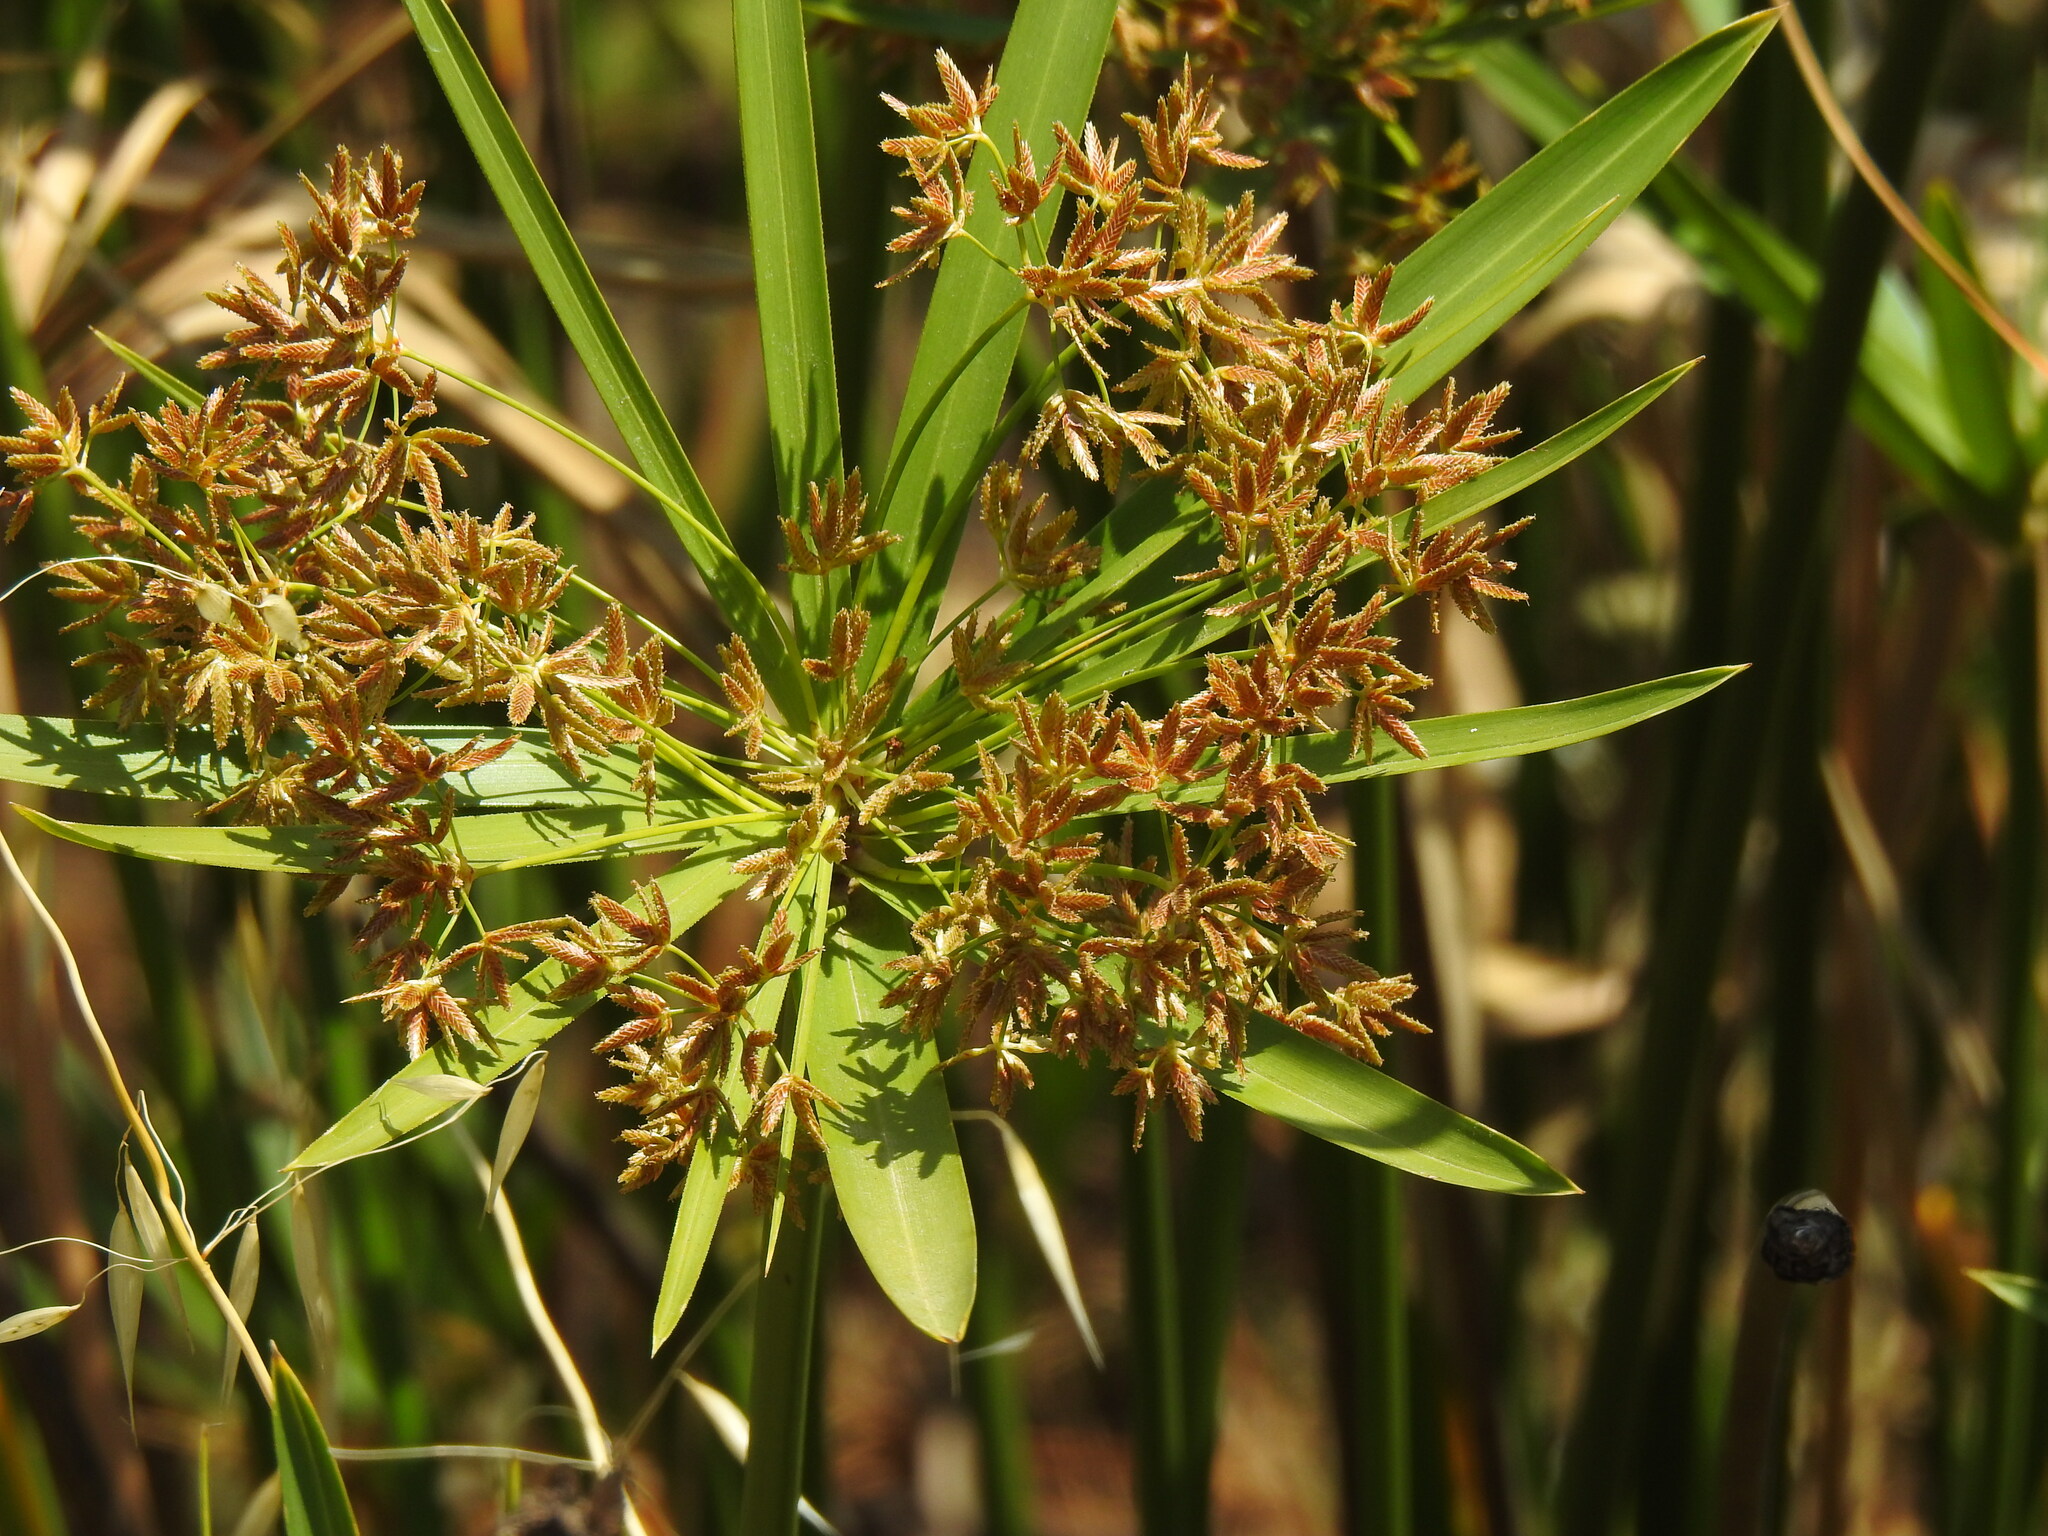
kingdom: Plantae
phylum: Tracheophyta
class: Liliopsida
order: Poales
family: Cyperaceae
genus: Cyperus
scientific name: Cyperus alternifolius
